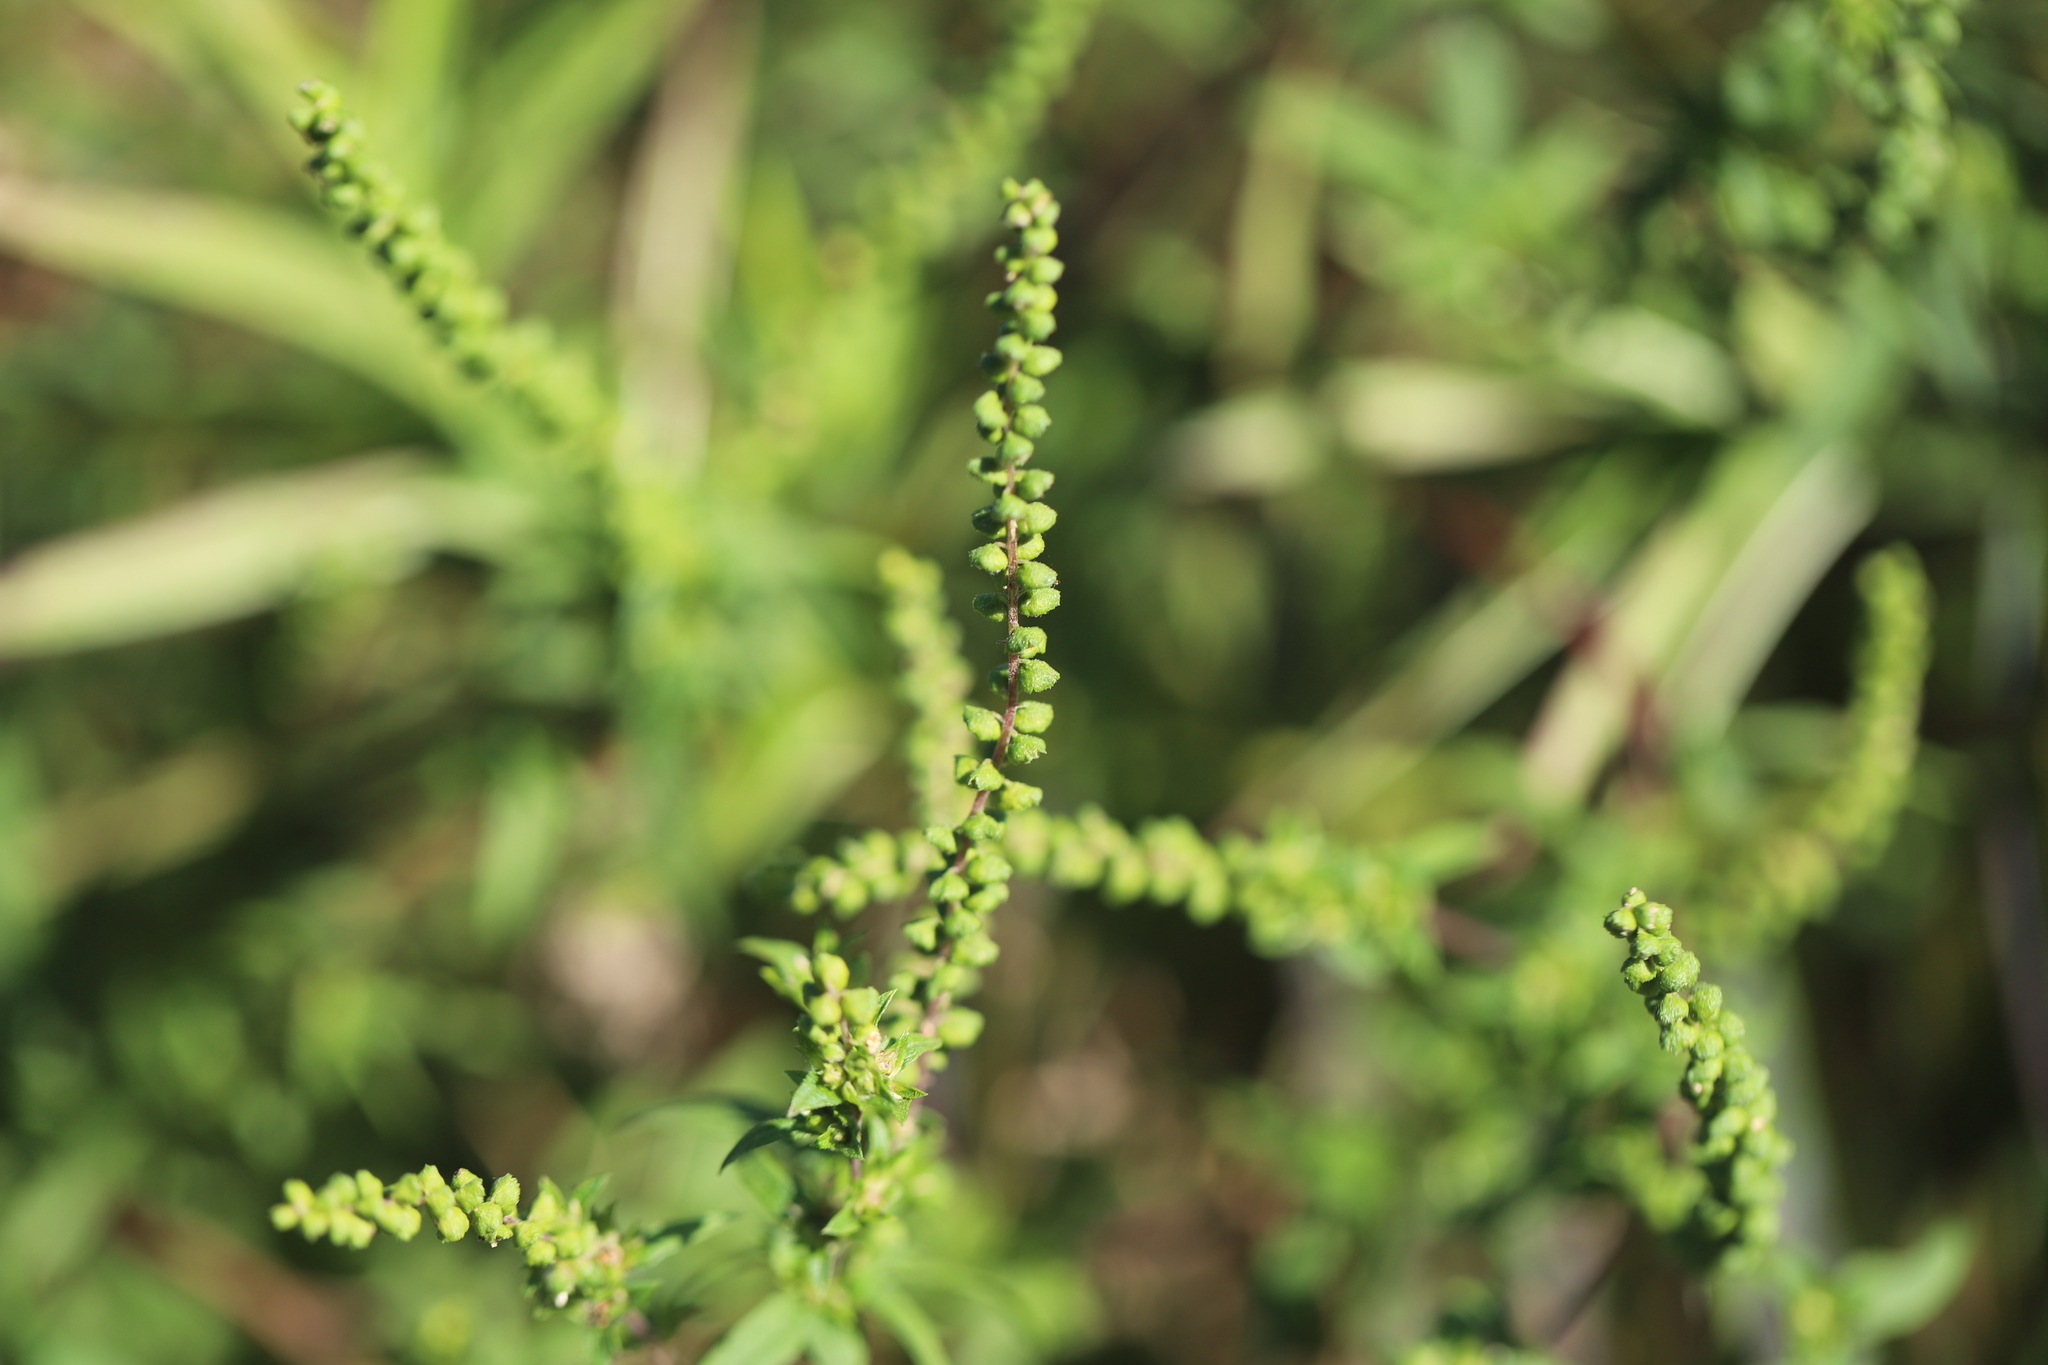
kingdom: Plantae
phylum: Tracheophyta
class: Magnoliopsida
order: Asterales
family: Asteraceae
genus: Ambrosia
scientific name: Ambrosia artemisiifolia
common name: Annual ragweed
